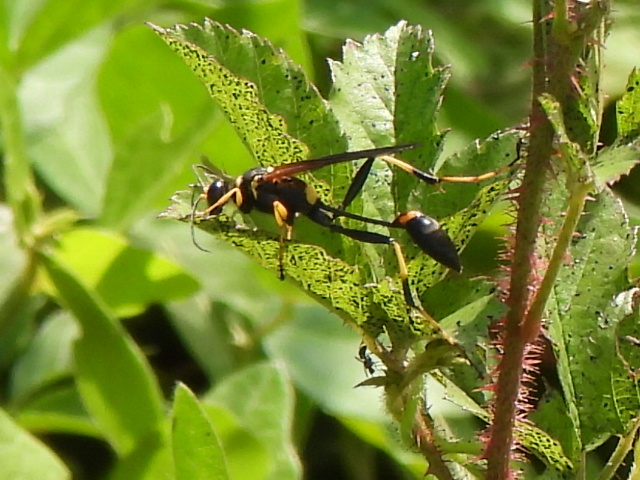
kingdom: Animalia
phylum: Arthropoda
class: Insecta
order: Hymenoptera
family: Sphecidae
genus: Sceliphron
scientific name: Sceliphron caementarium
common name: Mud dauber
